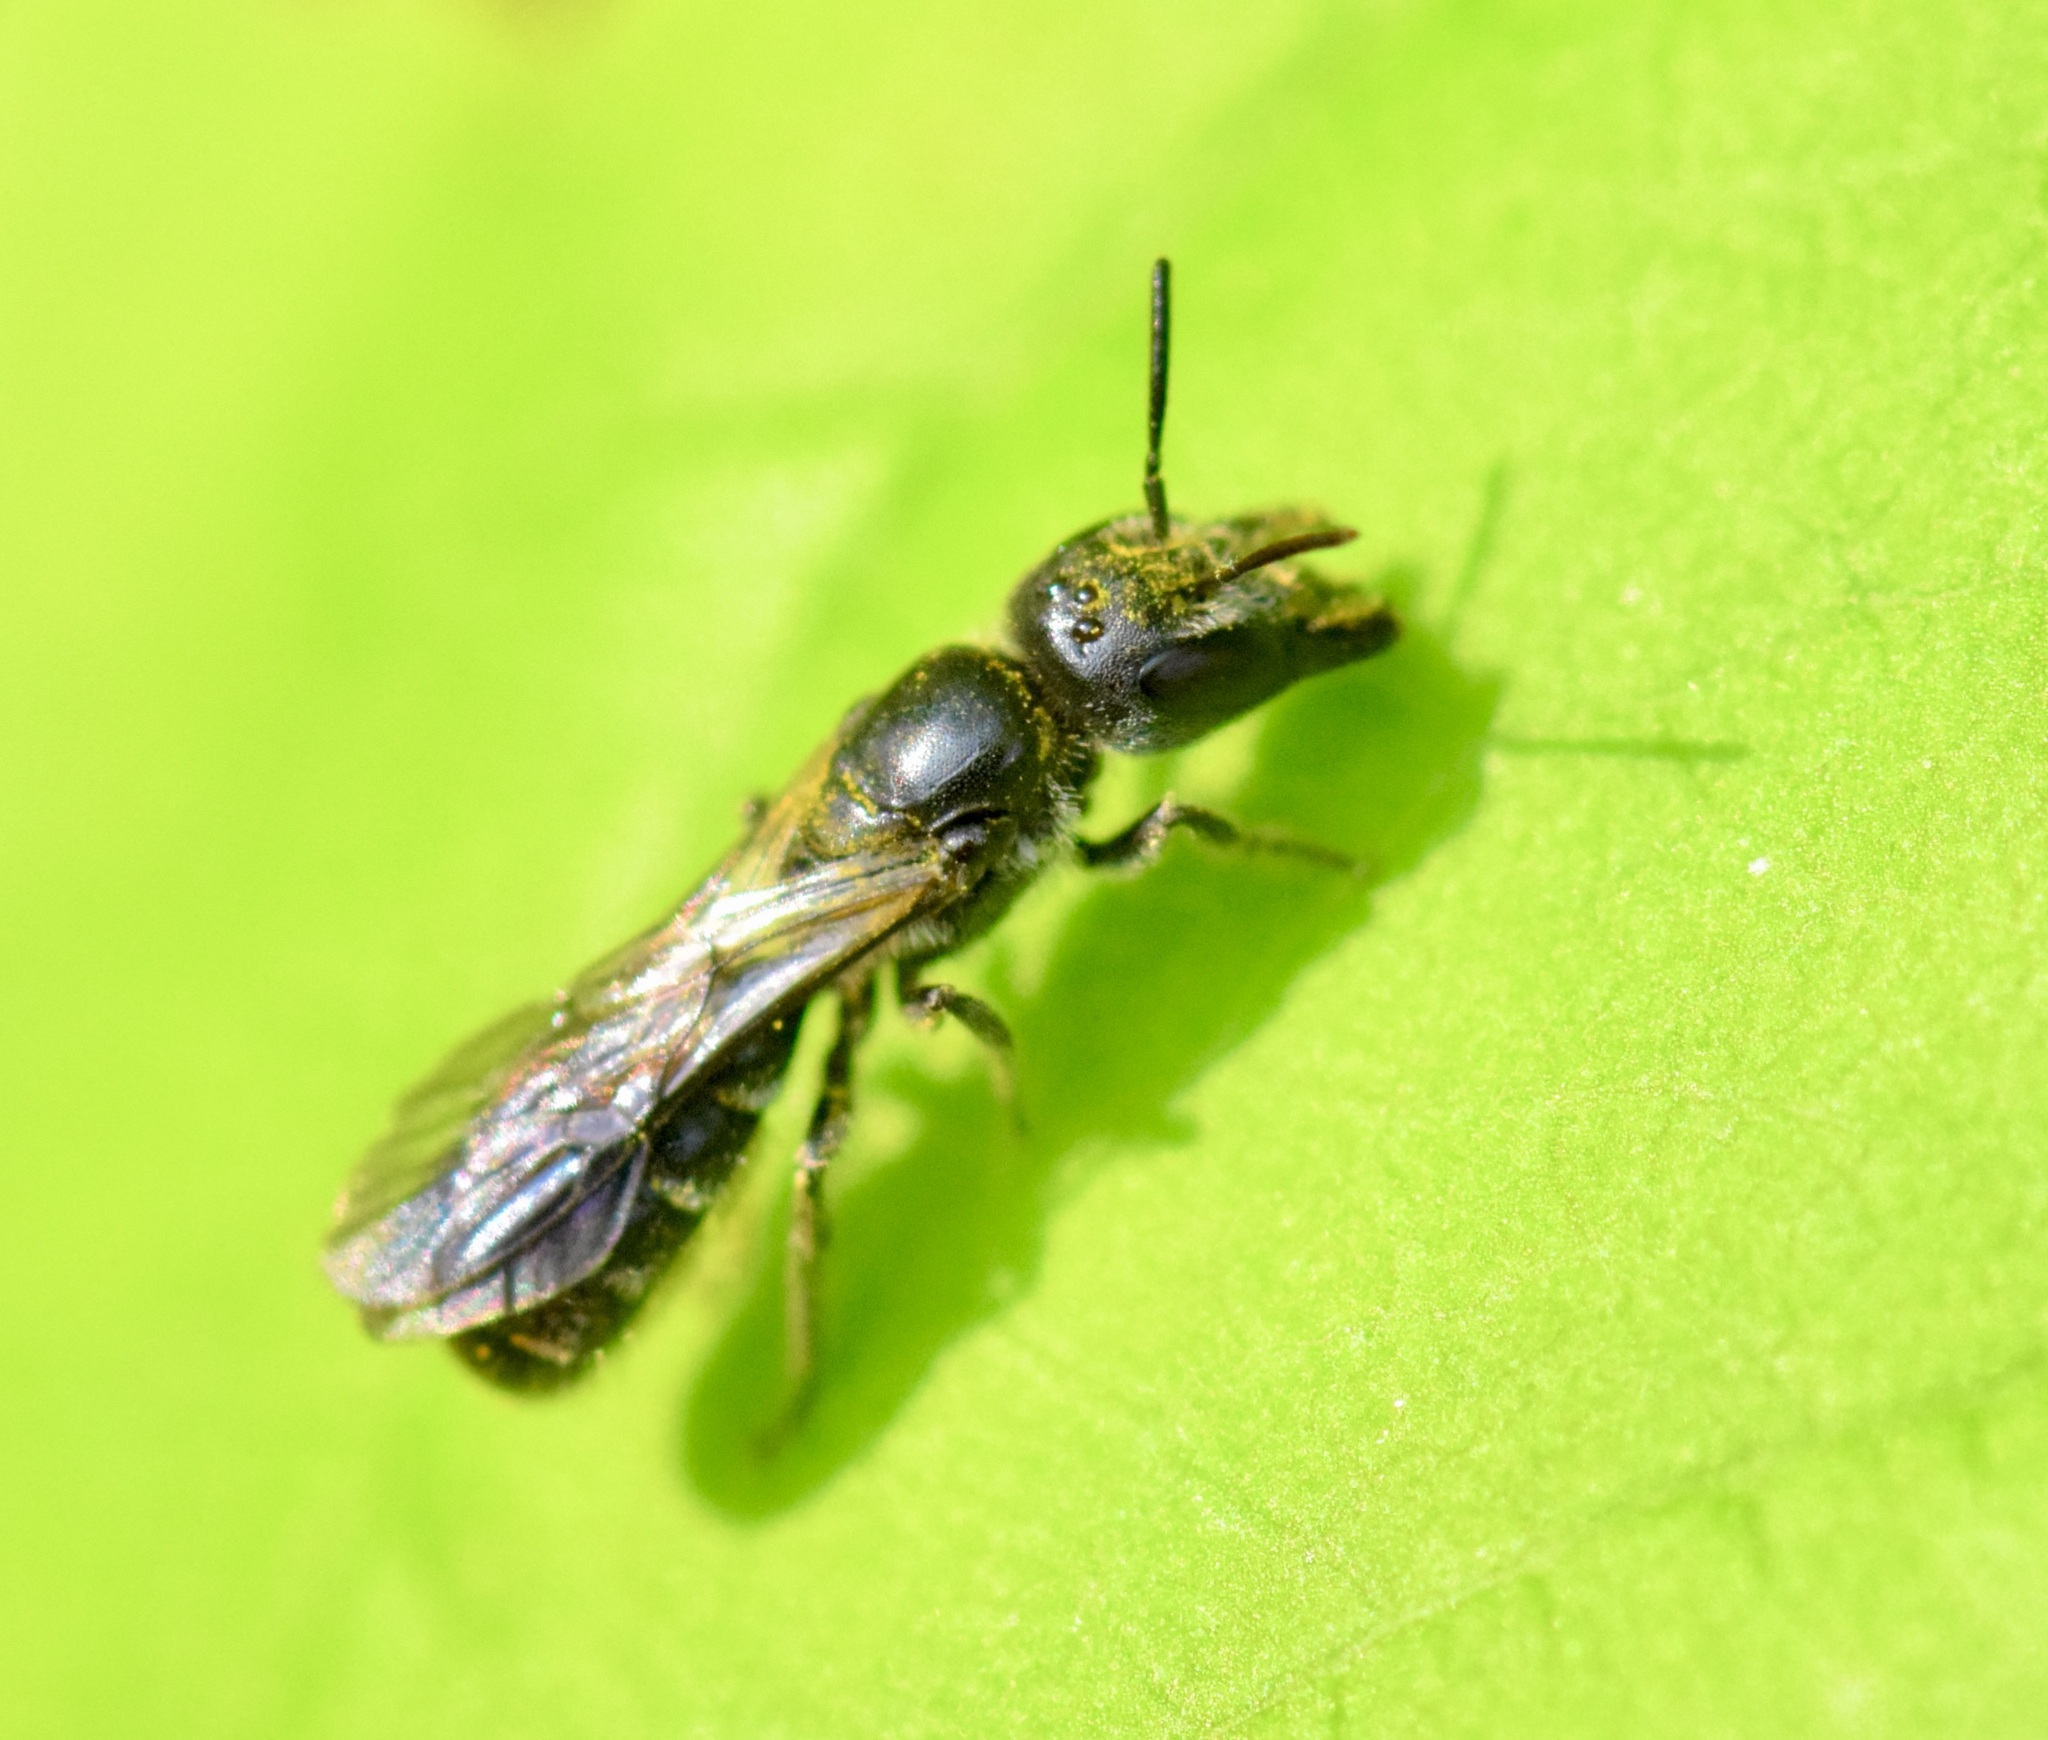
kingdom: Animalia
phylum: Arthropoda
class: Insecta
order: Hymenoptera
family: Megachilidae
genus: Chelostoma
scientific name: Chelostoma rapunculi
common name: Rampion scissor bee
